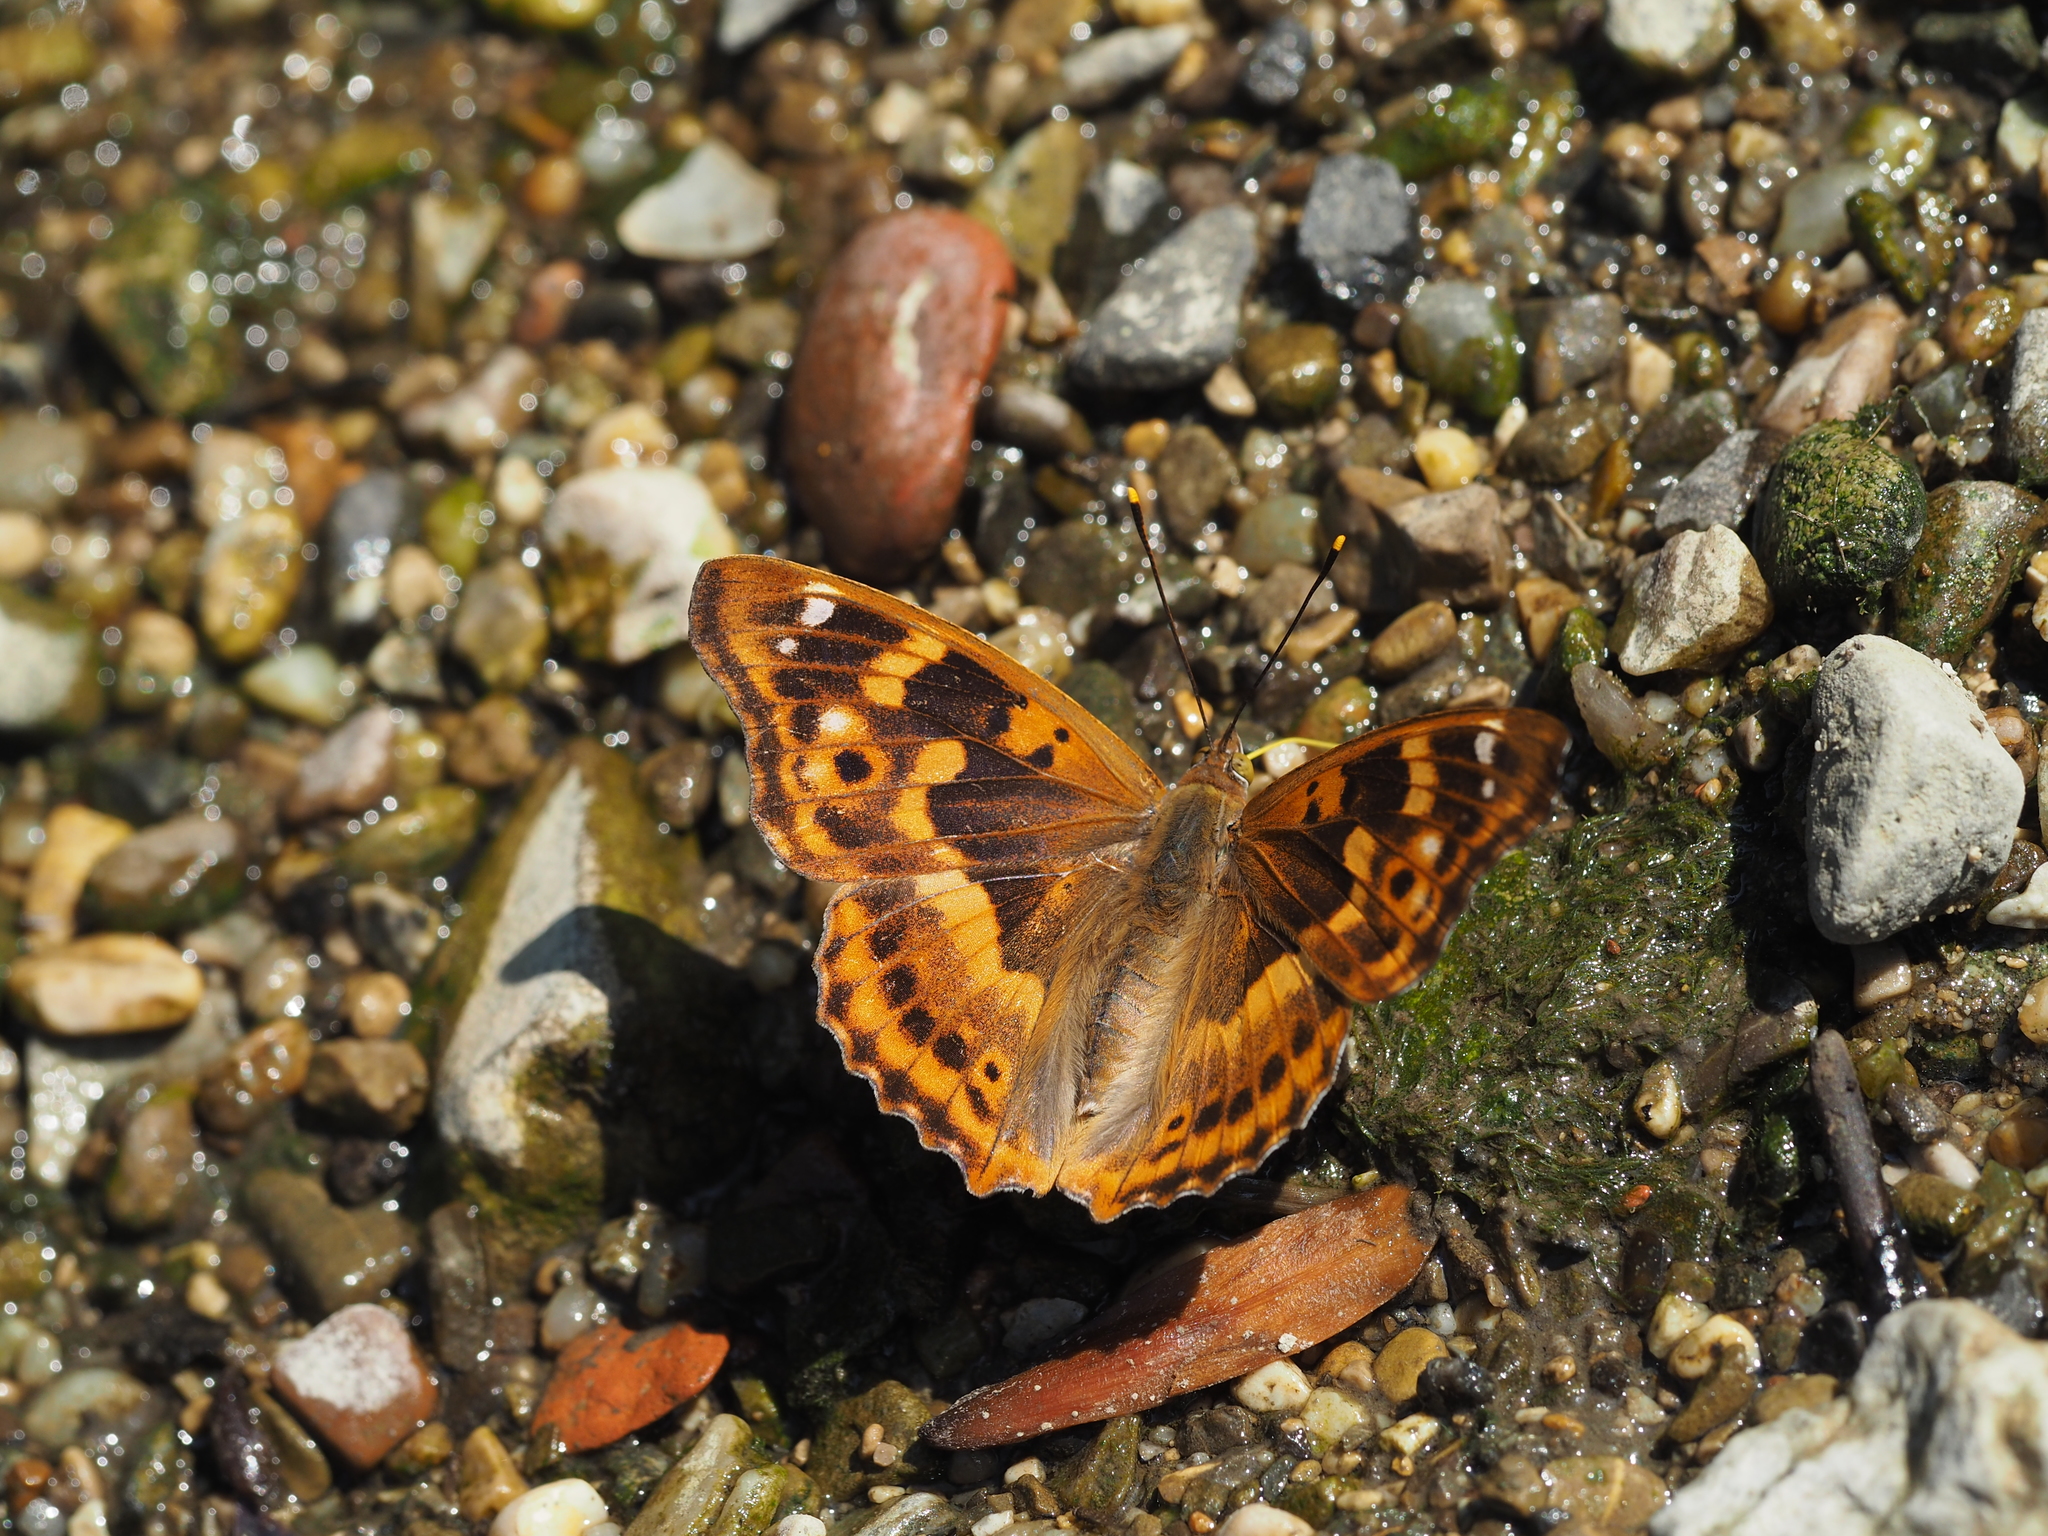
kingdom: Animalia
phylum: Arthropoda
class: Insecta
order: Lepidoptera
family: Nymphalidae
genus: Apatura
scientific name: Apatura ilia
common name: Lesser purple emperor
